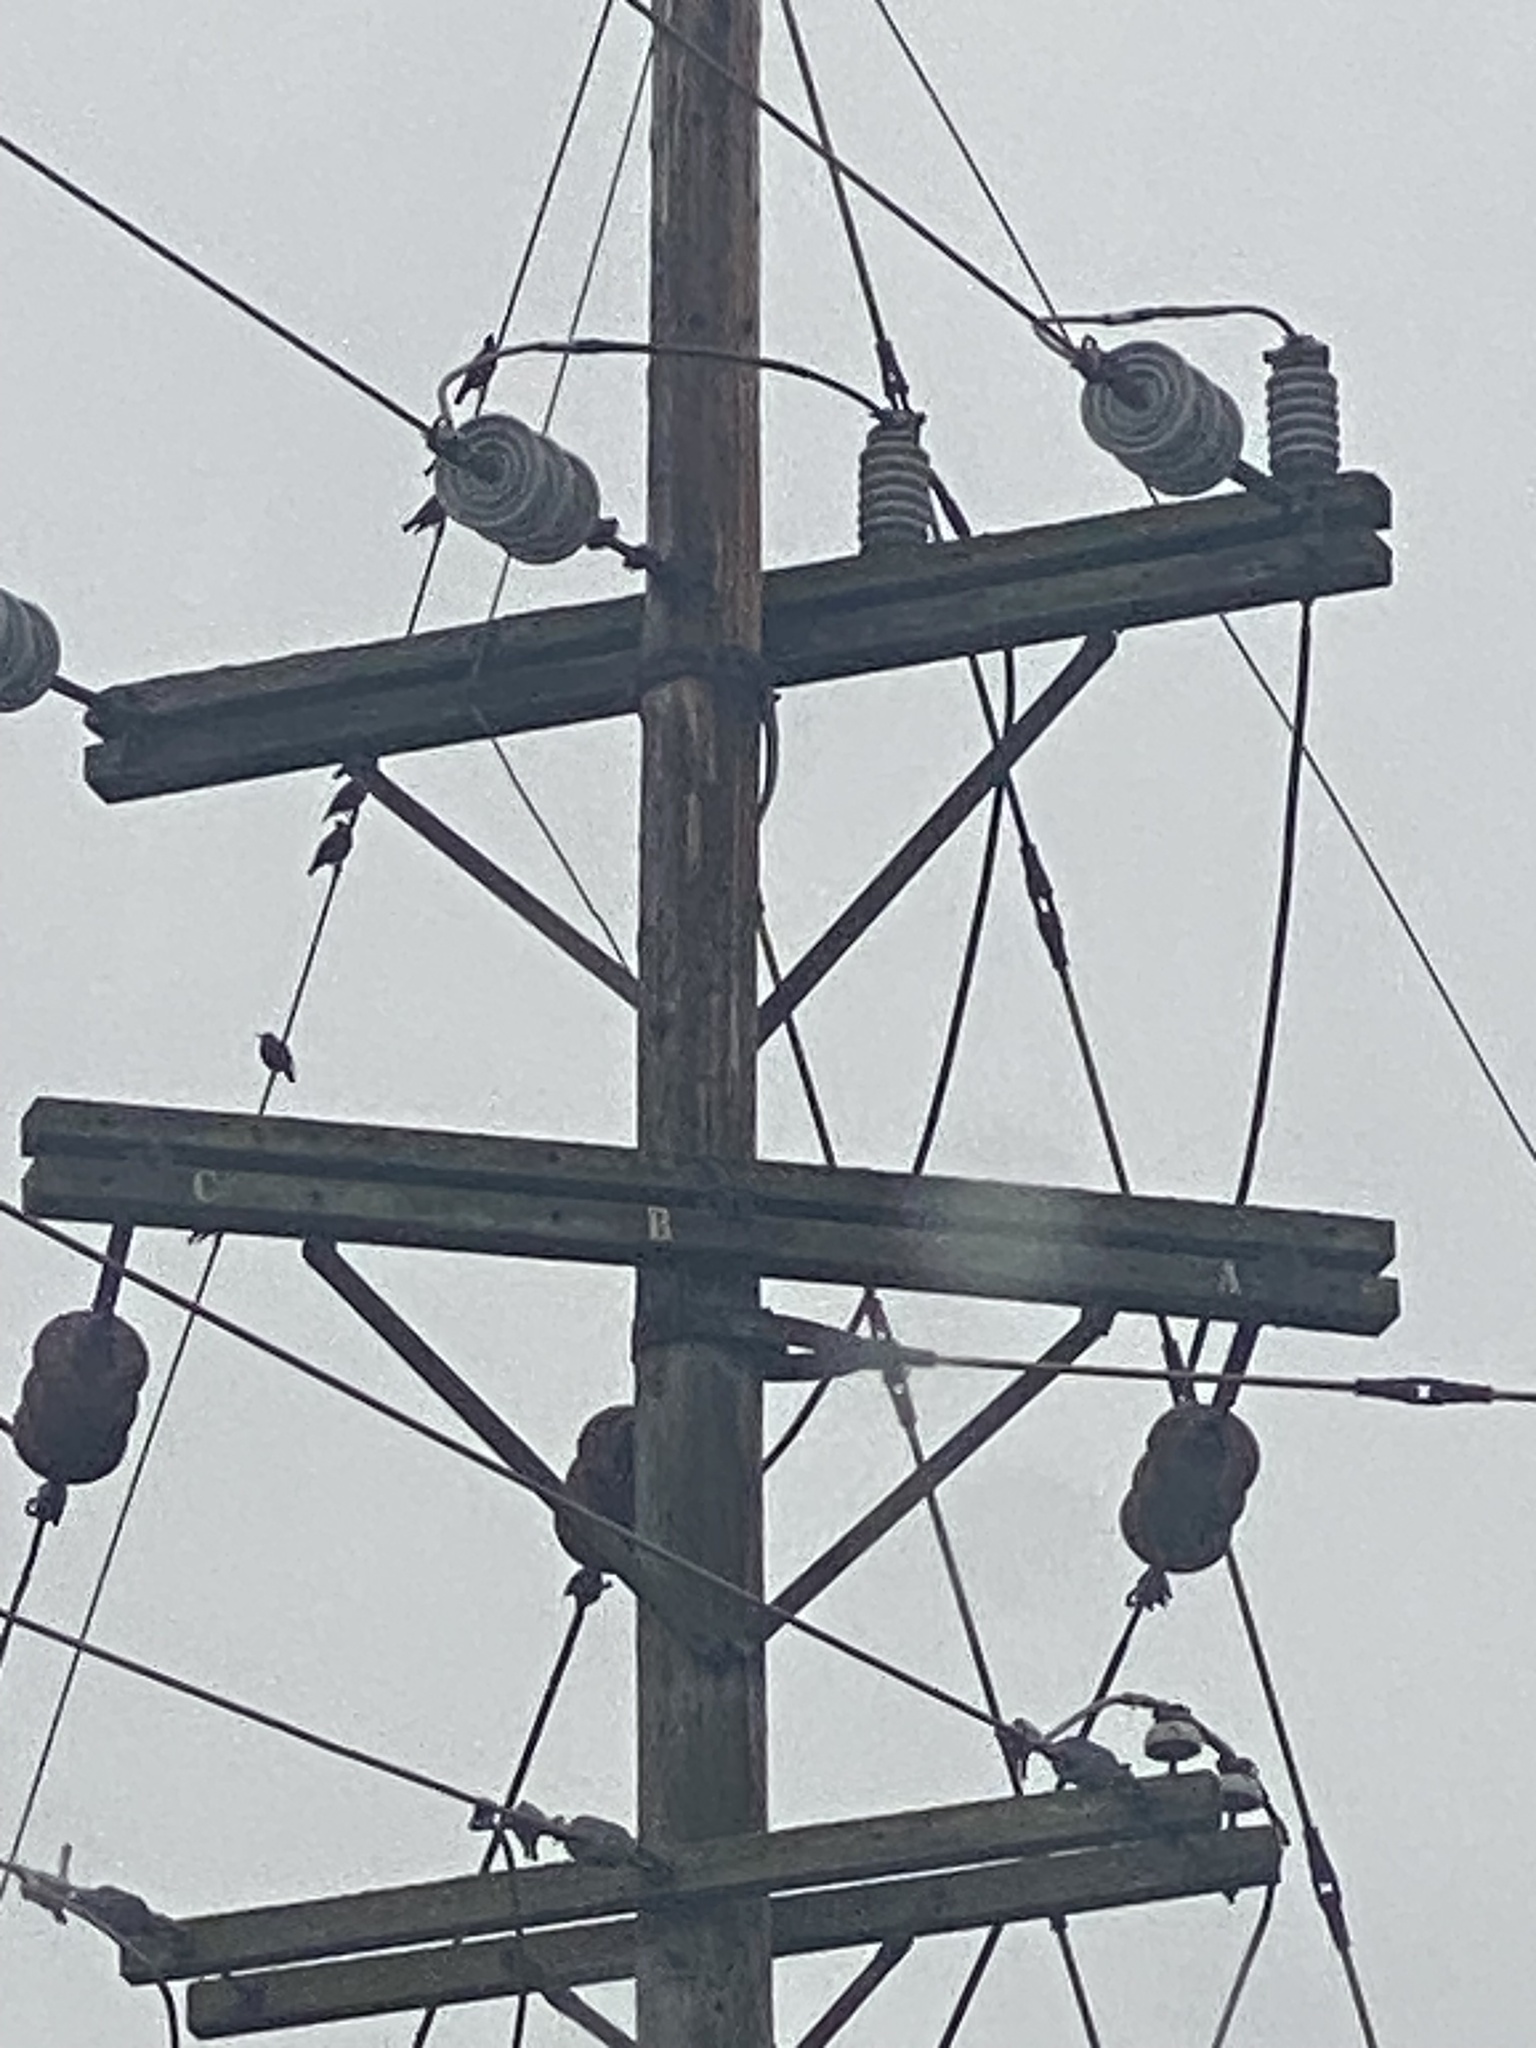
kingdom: Animalia
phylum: Chordata
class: Aves
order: Passeriformes
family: Sturnidae
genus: Sturnus
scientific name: Sturnus vulgaris
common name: Common starling
